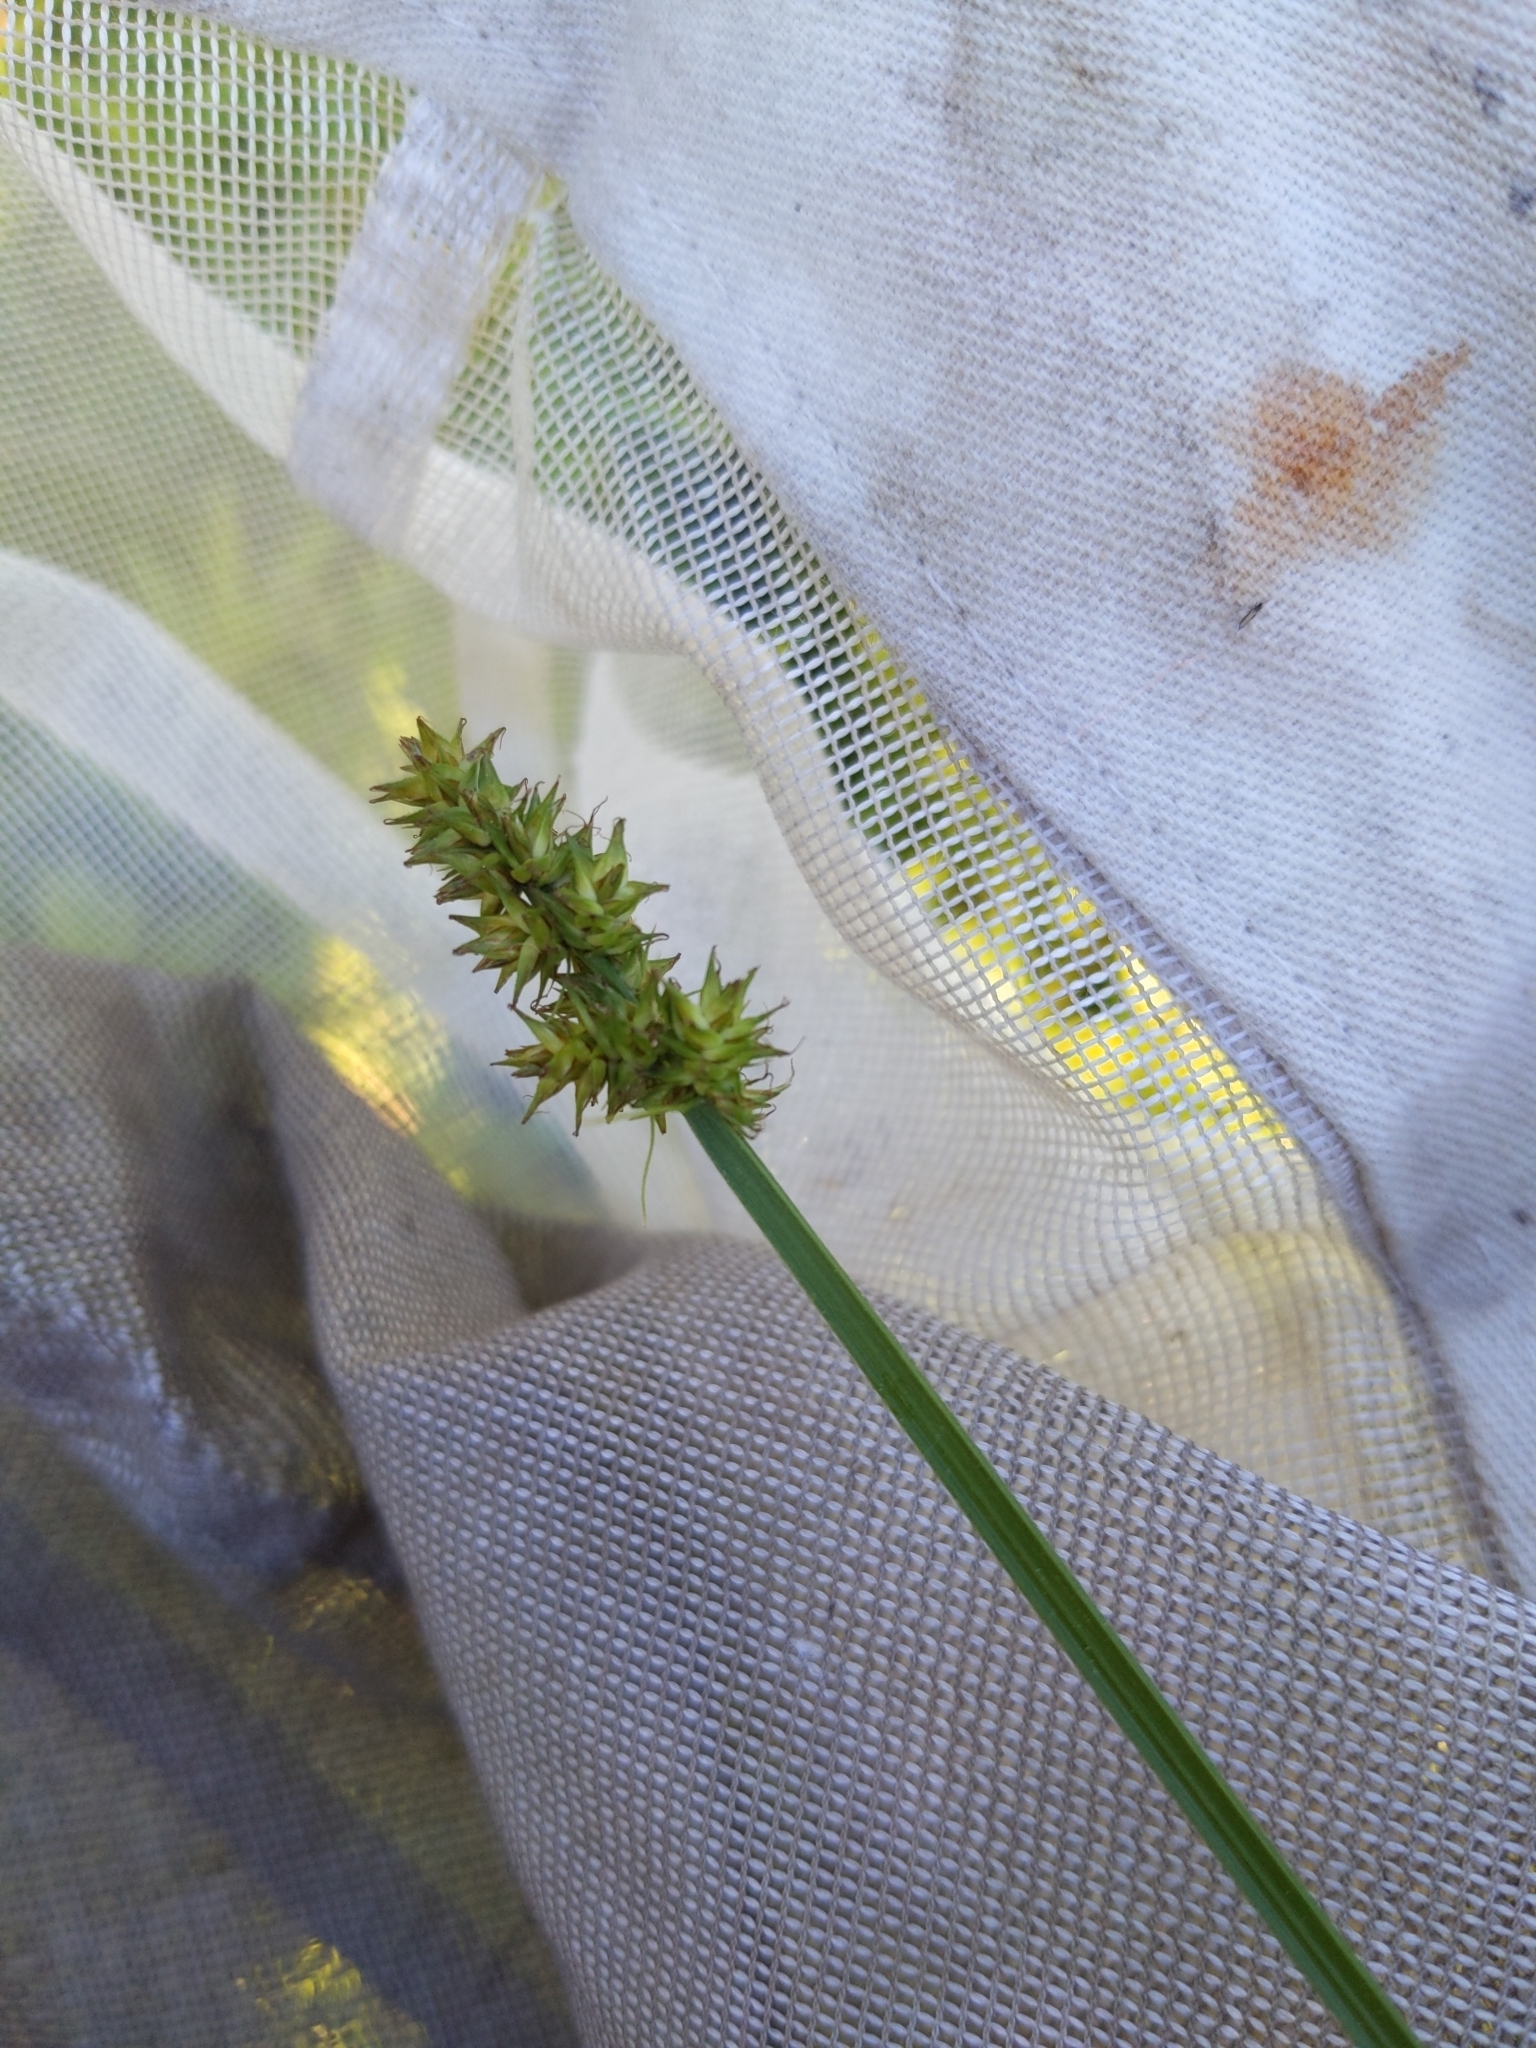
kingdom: Plantae
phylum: Tracheophyta
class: Liliopsida
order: Poales
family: Cyperaceae
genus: Carex
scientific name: Carex alopecoidea
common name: Brown-headed fox sedge
